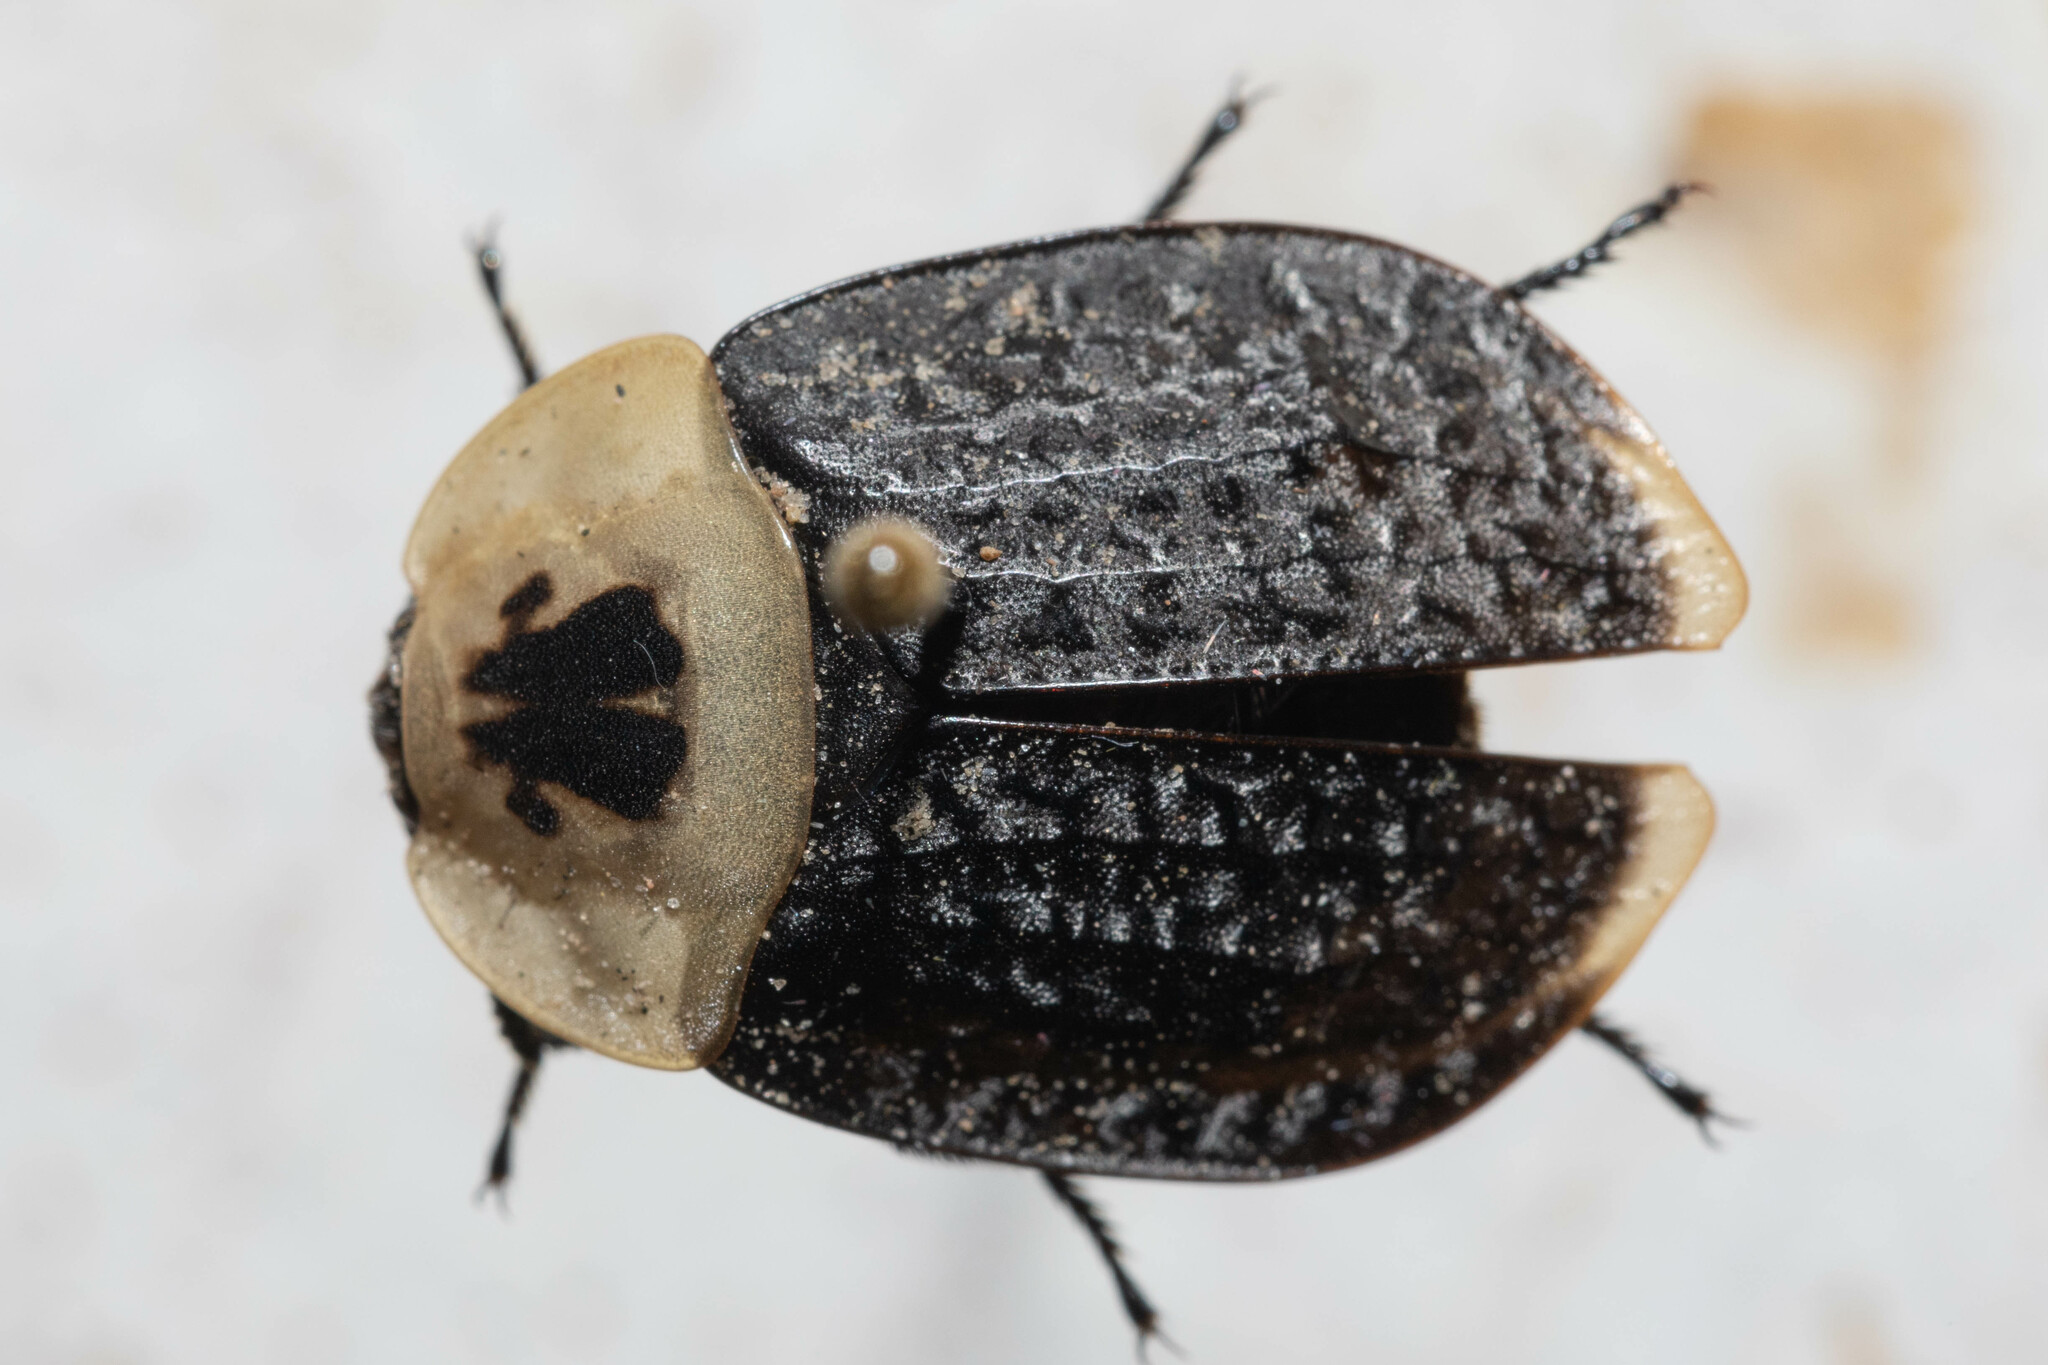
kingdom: Animalia
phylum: Arthropoda
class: Insecta
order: Coleoptera
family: Staphylinidae
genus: Necrophila
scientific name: Necrophila americana
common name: American carrion beetle
